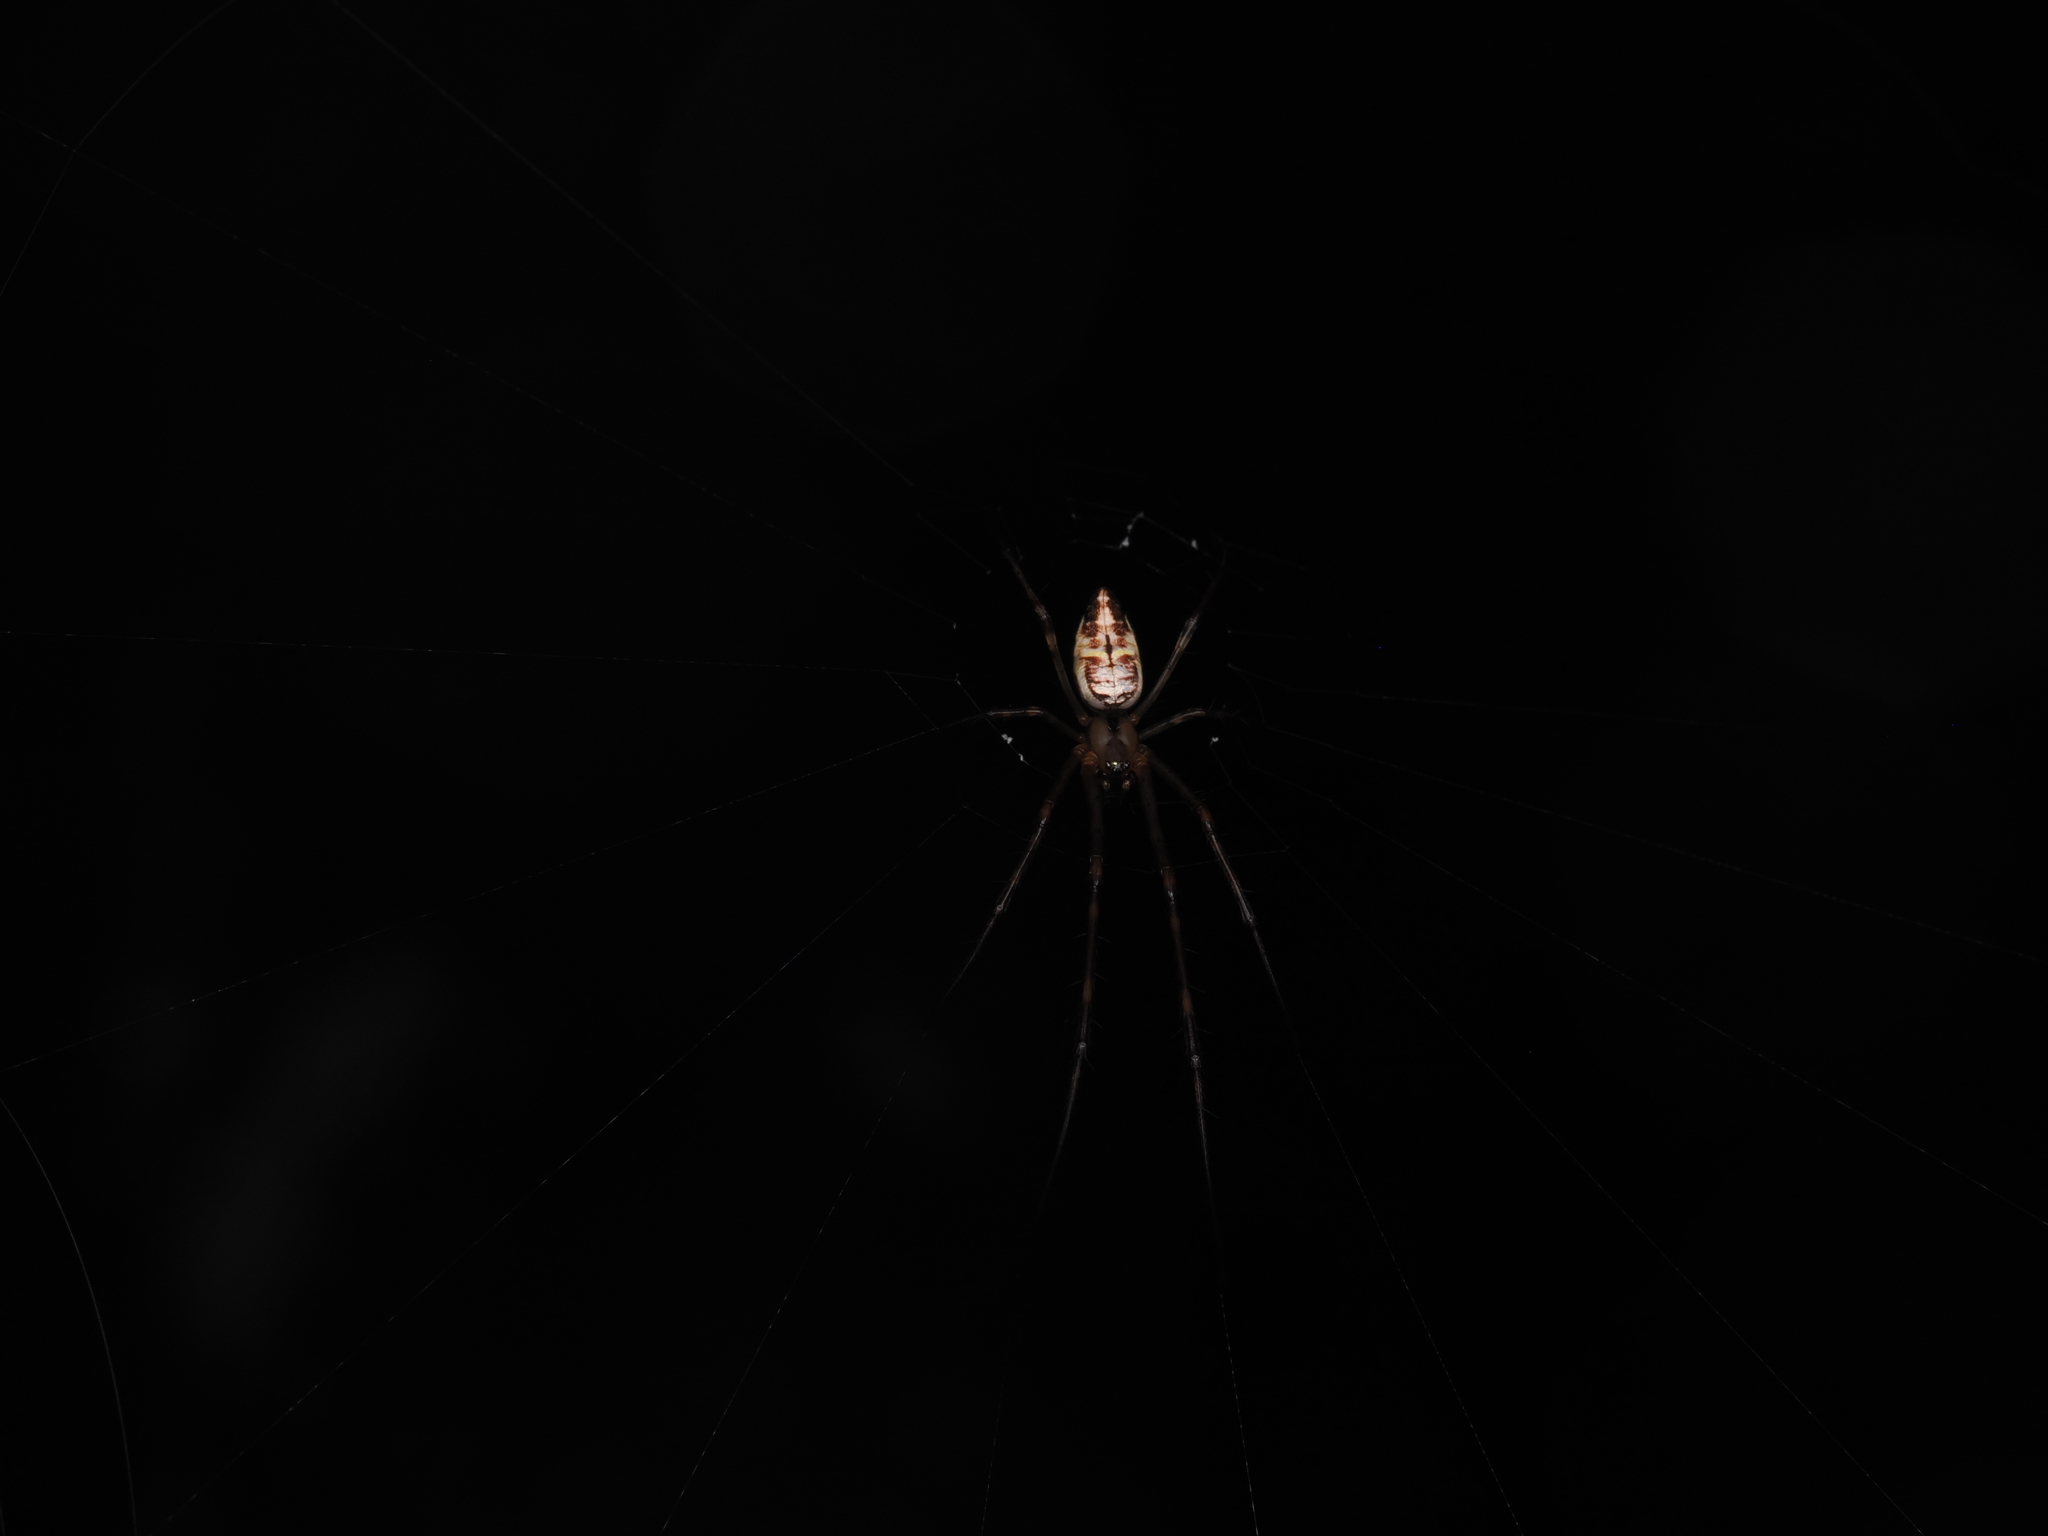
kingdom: Animalia
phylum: Arthropoda
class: Arachnida
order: Araneae
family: Tetragnathidae
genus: Tylorida
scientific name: Tylorida ventralis
